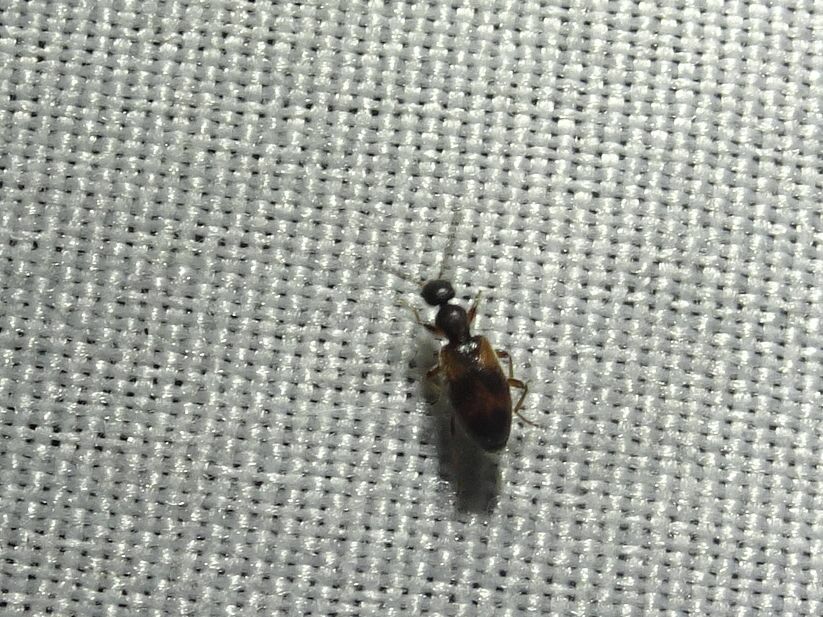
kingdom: Animalia
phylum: Arthropoda
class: Insecta
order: Coleoptera
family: Anthicidae
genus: Anthicus
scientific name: Anthicus antherinus
